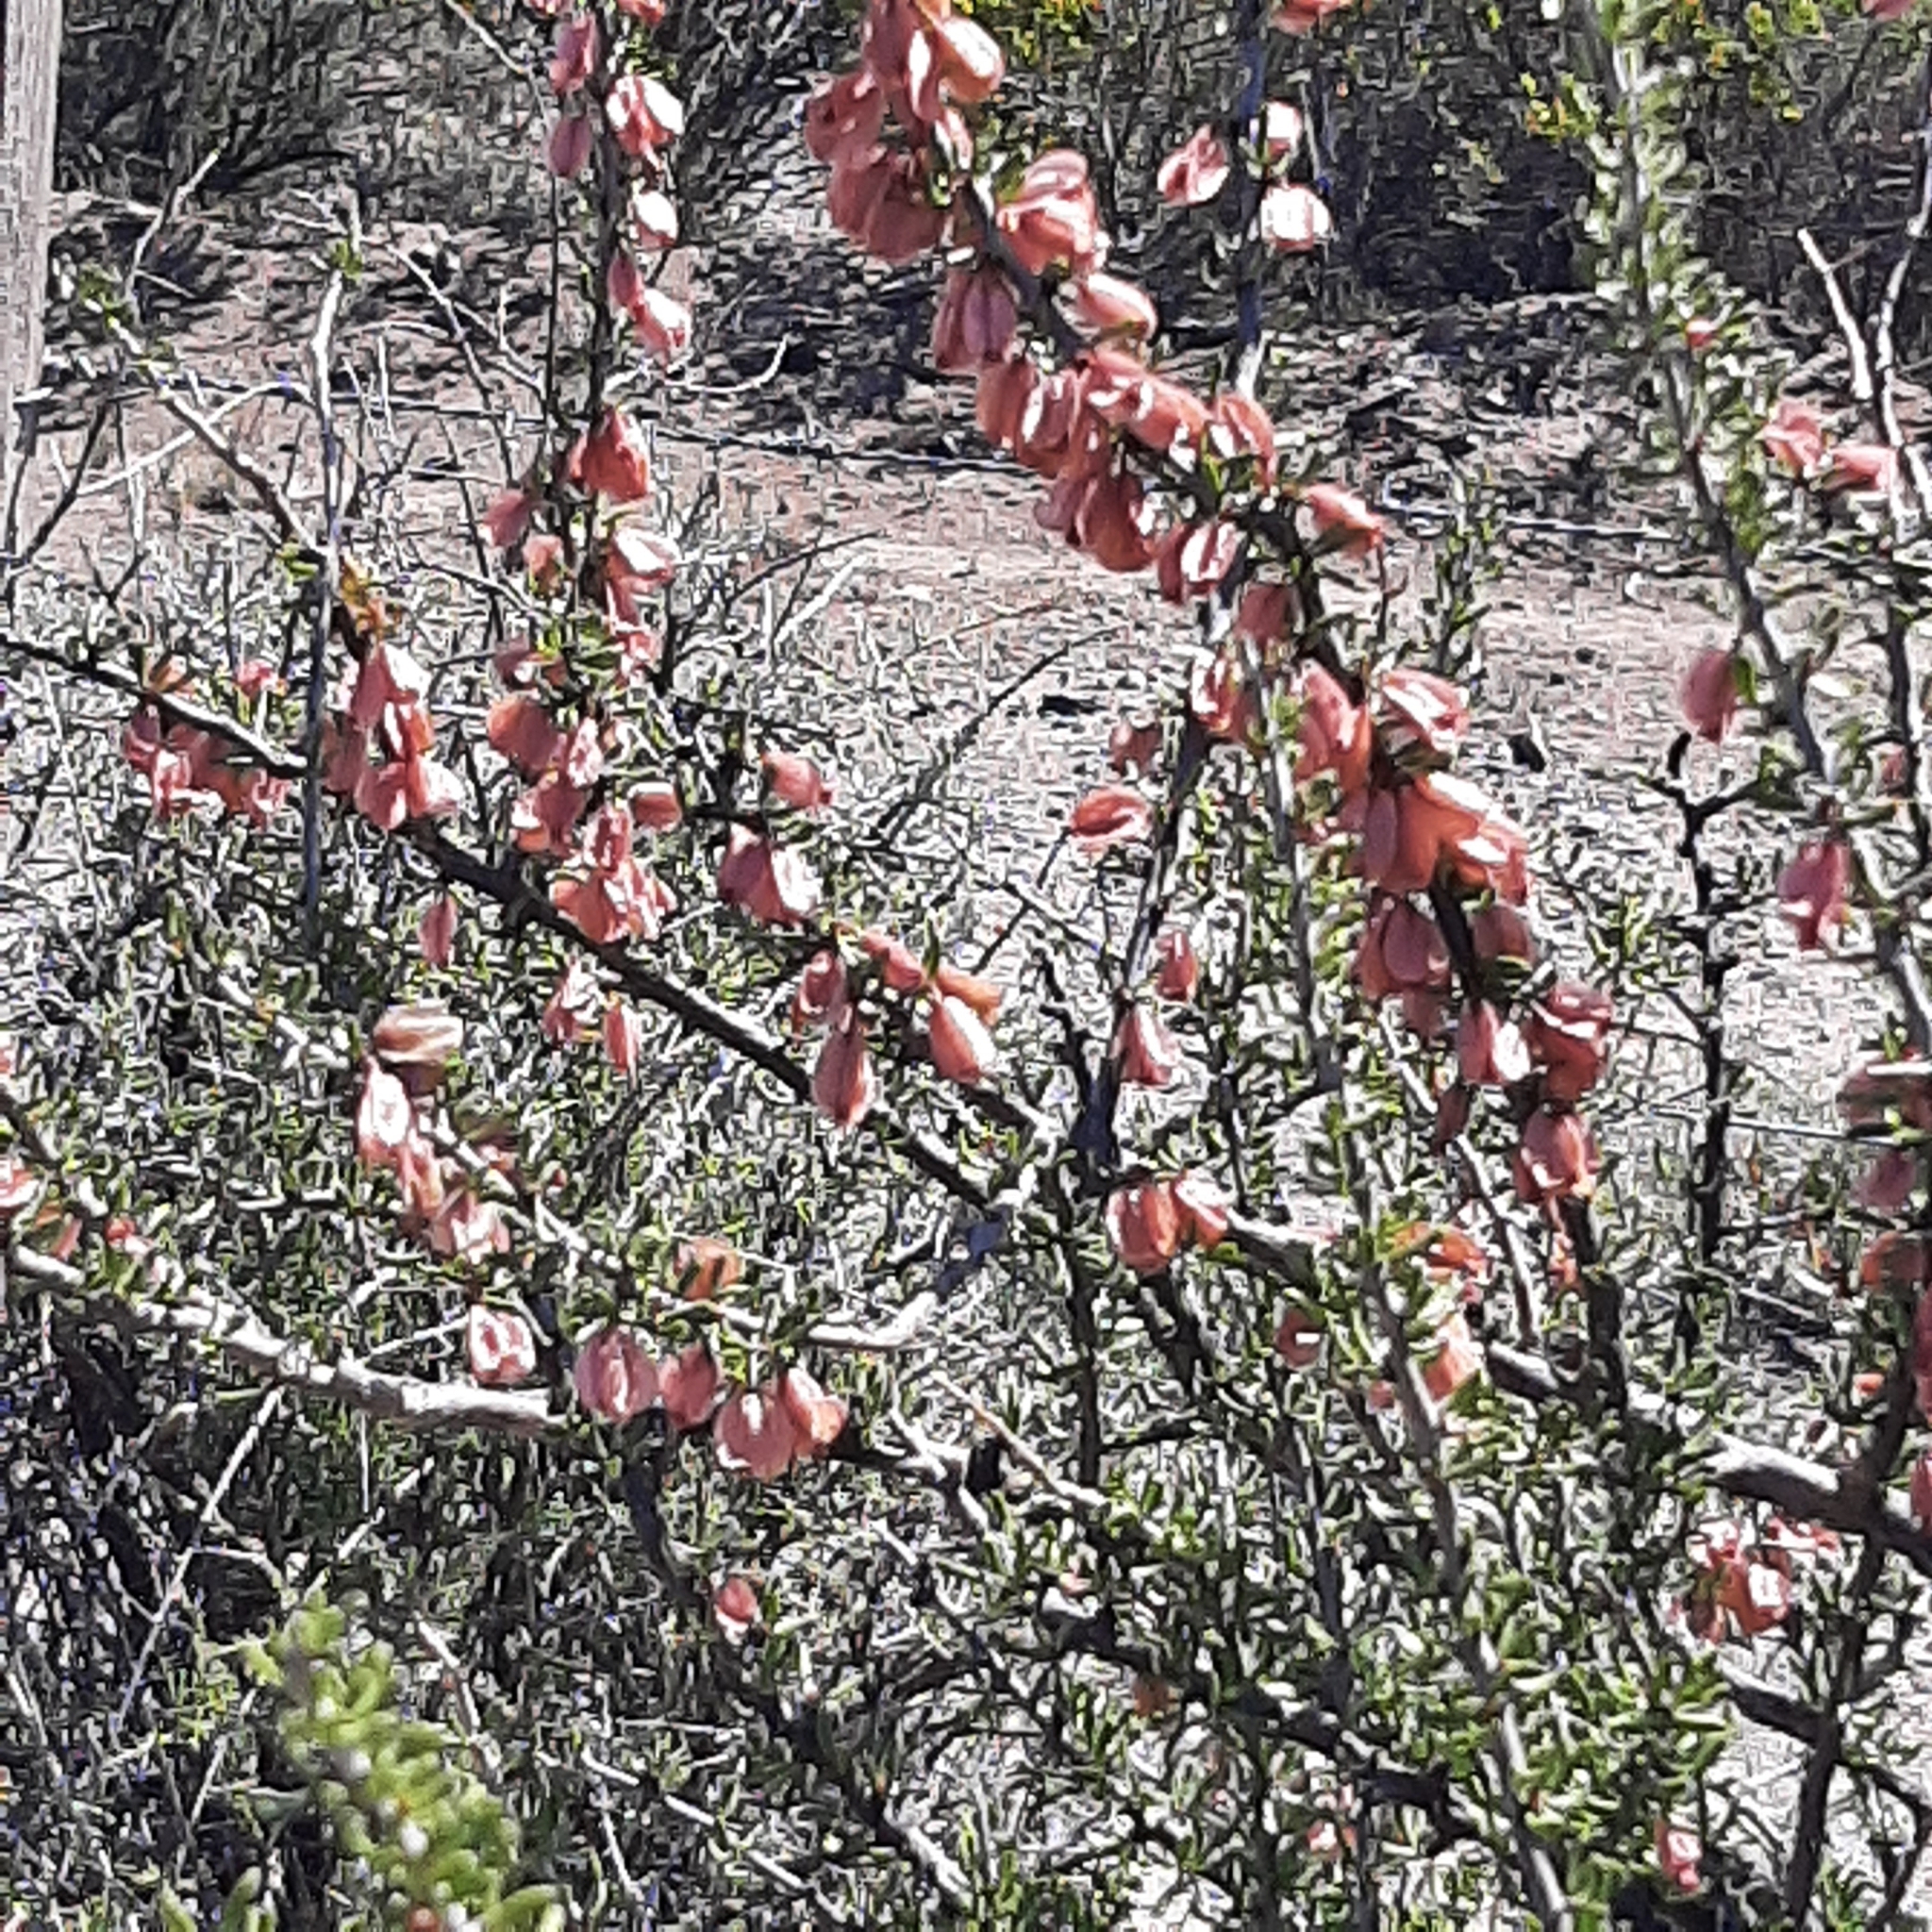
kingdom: Plantae
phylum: Tracheophyta
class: Magnoliopsida
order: Caryophyllales
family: Nyctaginaceae
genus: Bougainvillea
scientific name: Bougainvillea spinosa
